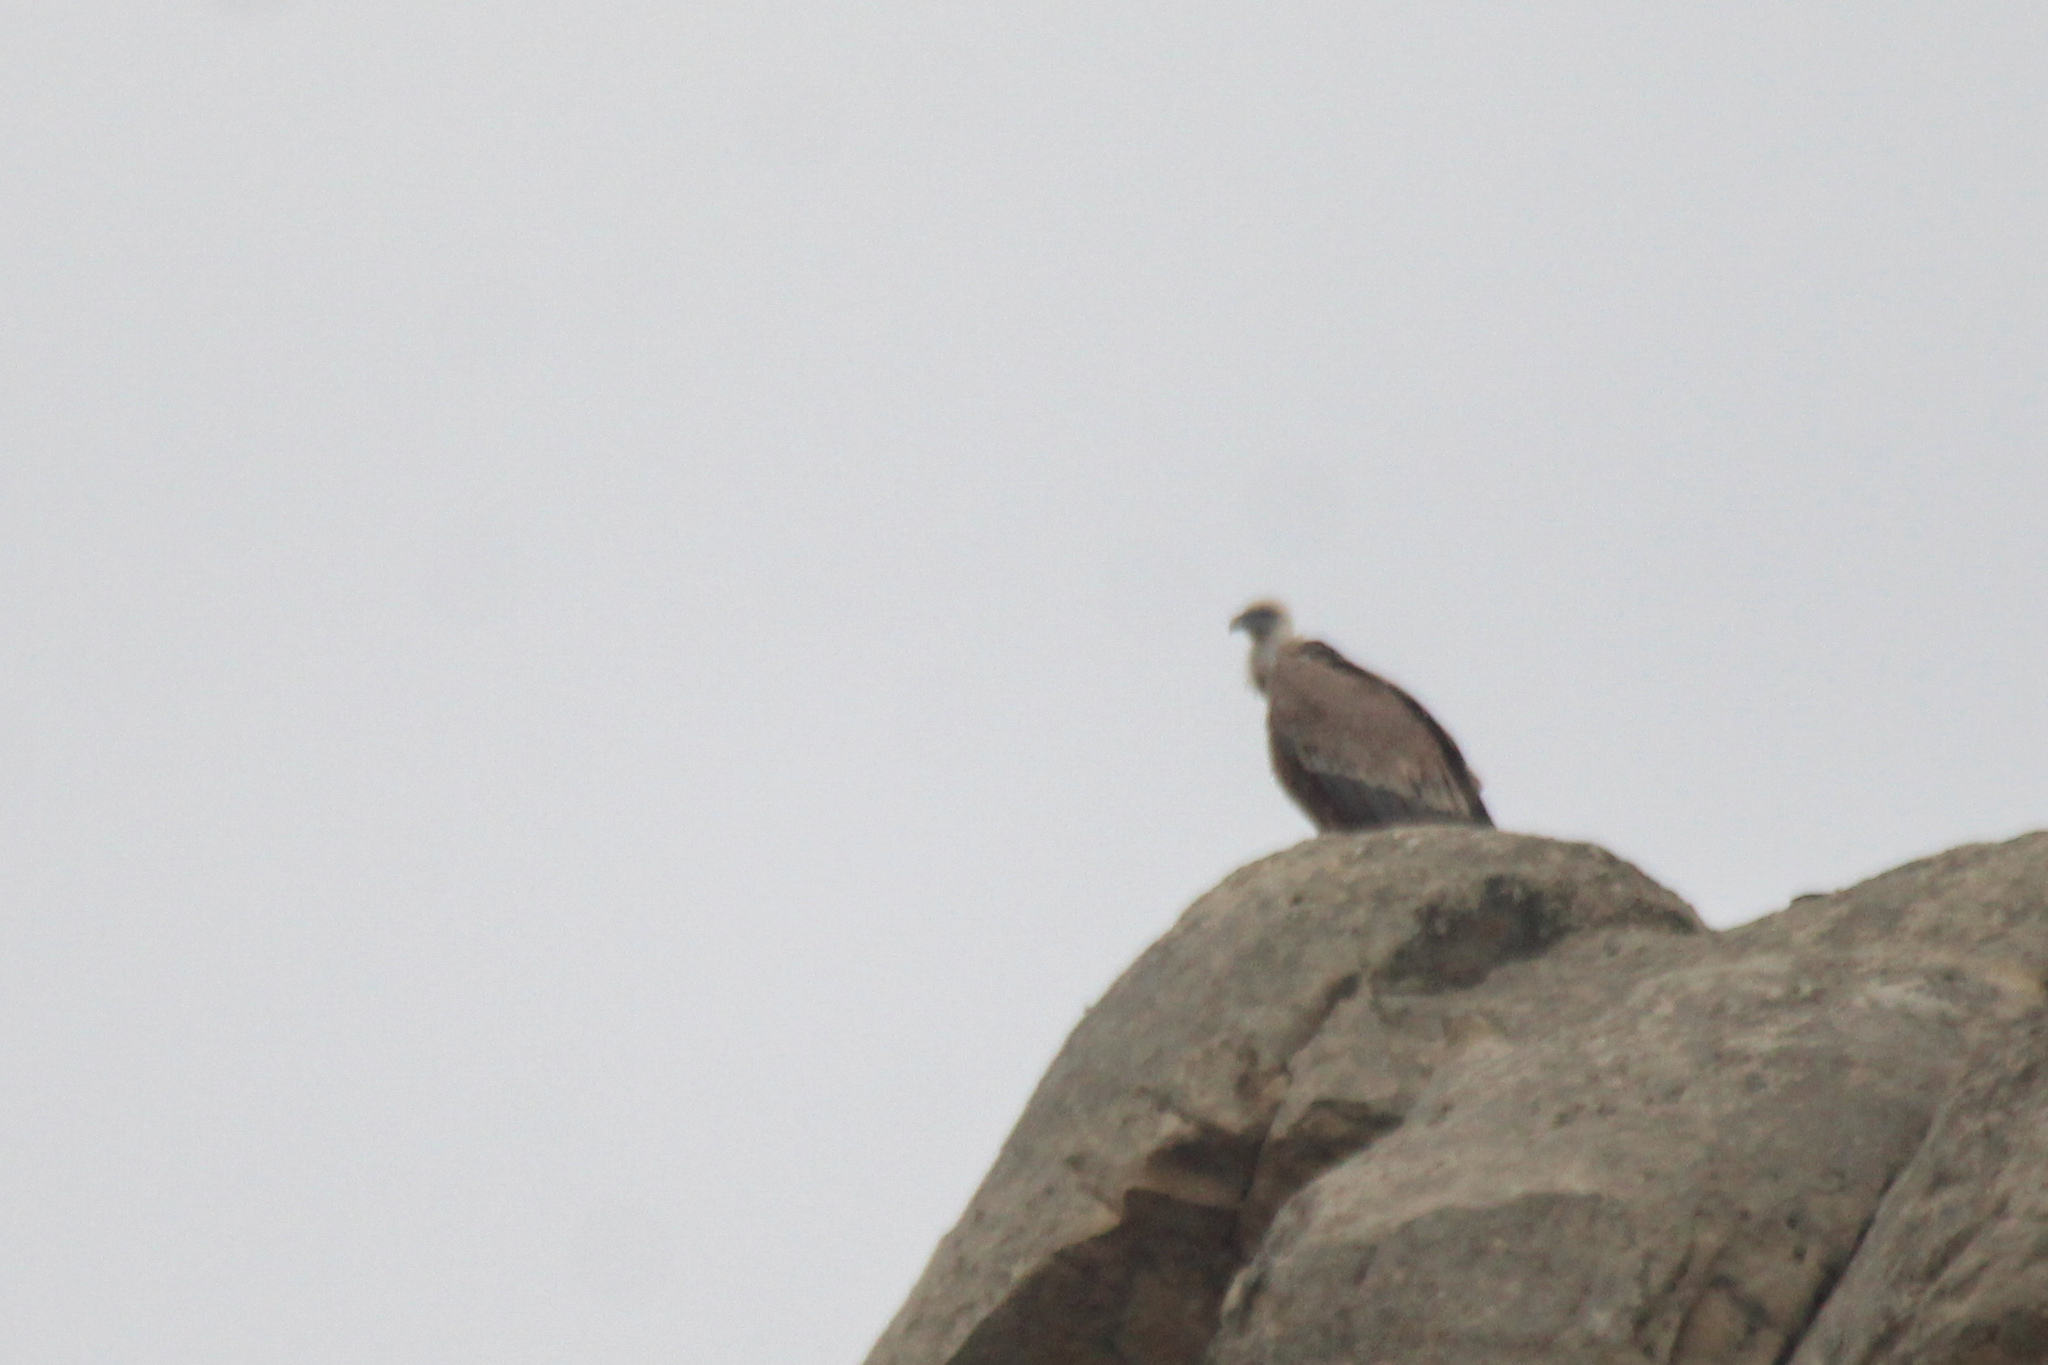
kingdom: Animalia
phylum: Chordata
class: Aves
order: Accipitriformes
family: Accipitridae
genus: Gyps
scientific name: Gyps fulvus
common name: Griffon vulture
